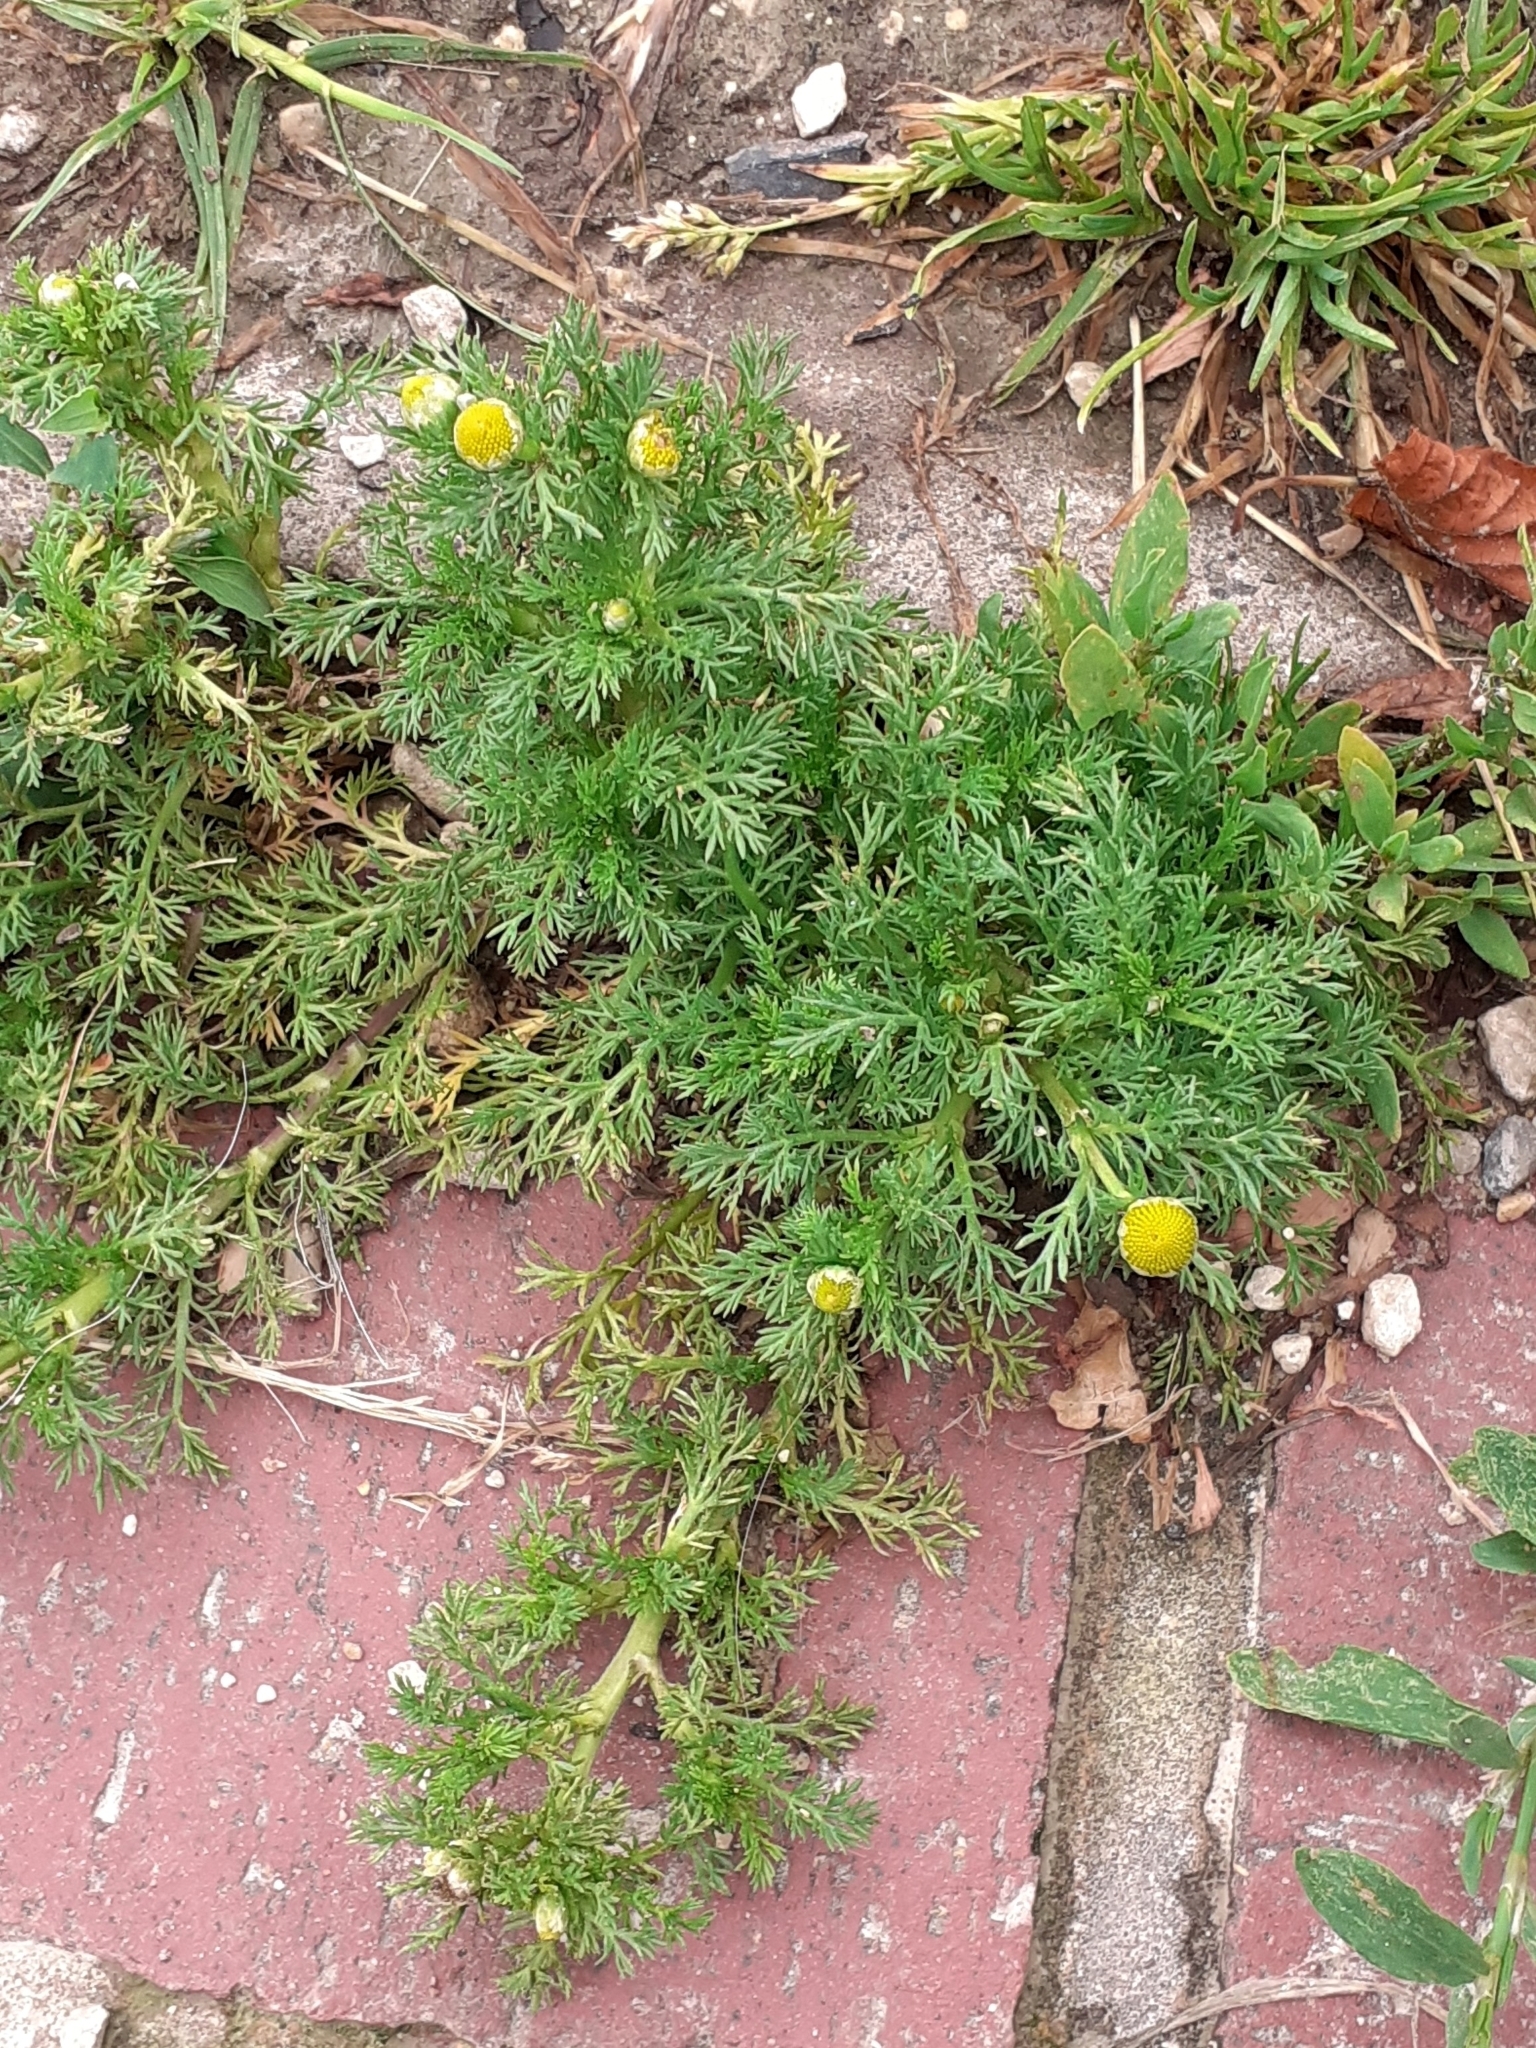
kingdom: Plantae
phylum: Tracheophyta
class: Magnoliopsida
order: Asterales
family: Asteraceae
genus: Matricaria
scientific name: Matricaria discoidea
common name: Disc mayweed
